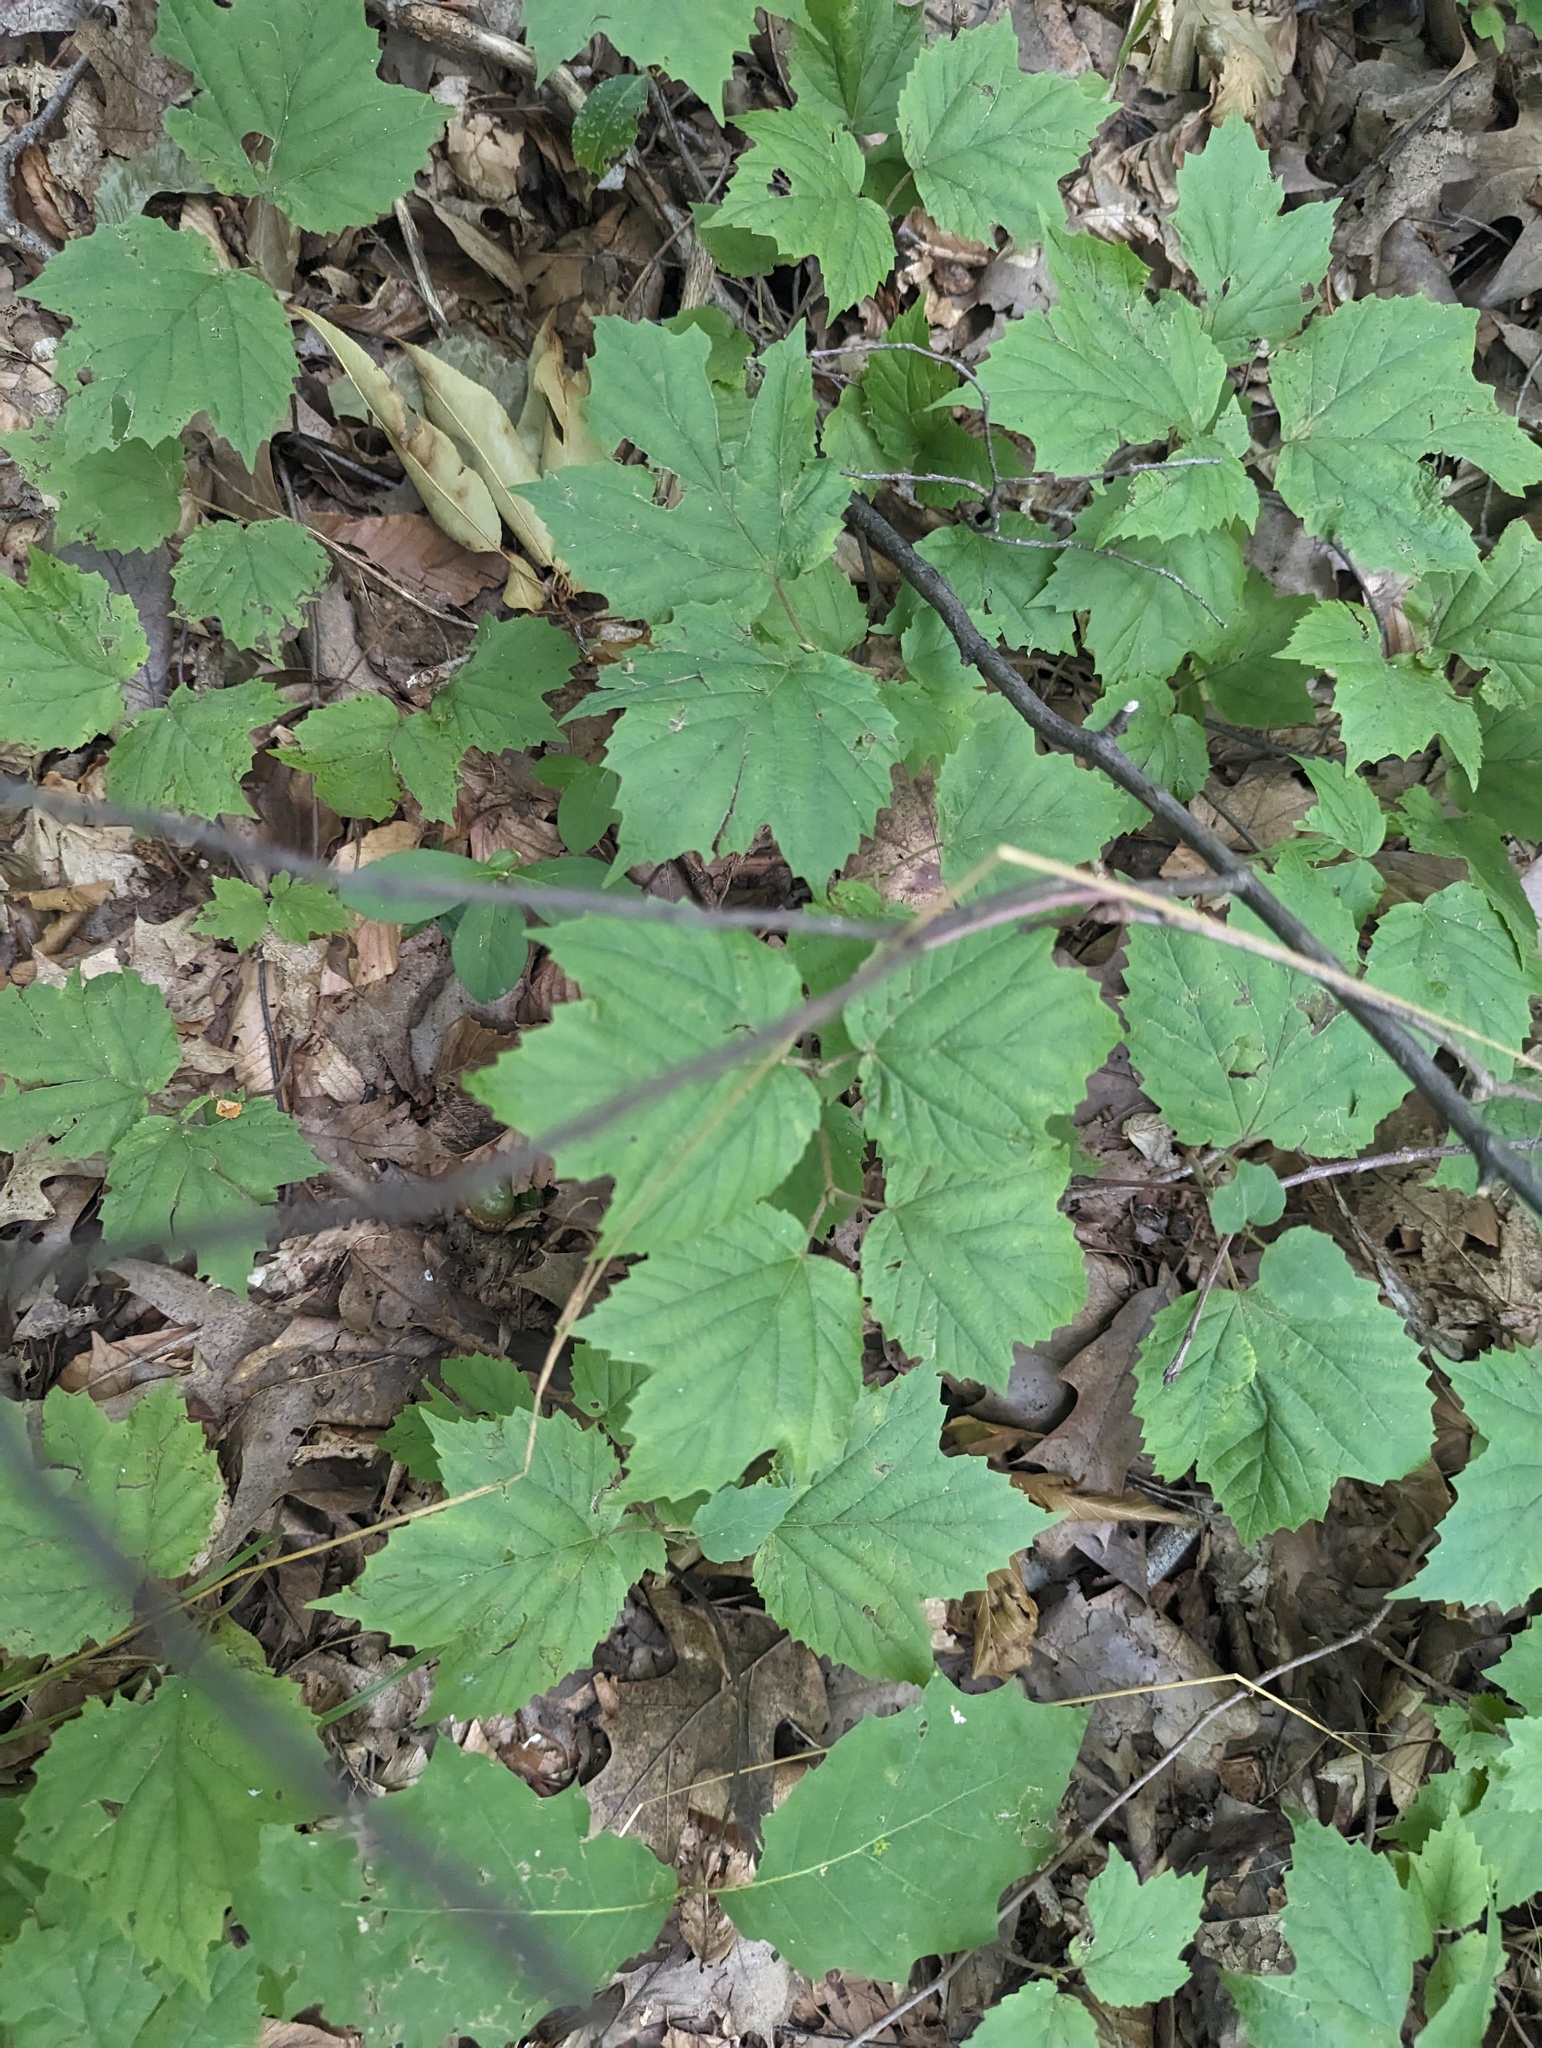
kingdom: Plantae
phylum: Tracheophyta
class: Magnoliopsida
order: Dipsacales
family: Viburnaceae
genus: Viburnum
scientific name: Viburnum acerifolium
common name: Dockmackie
